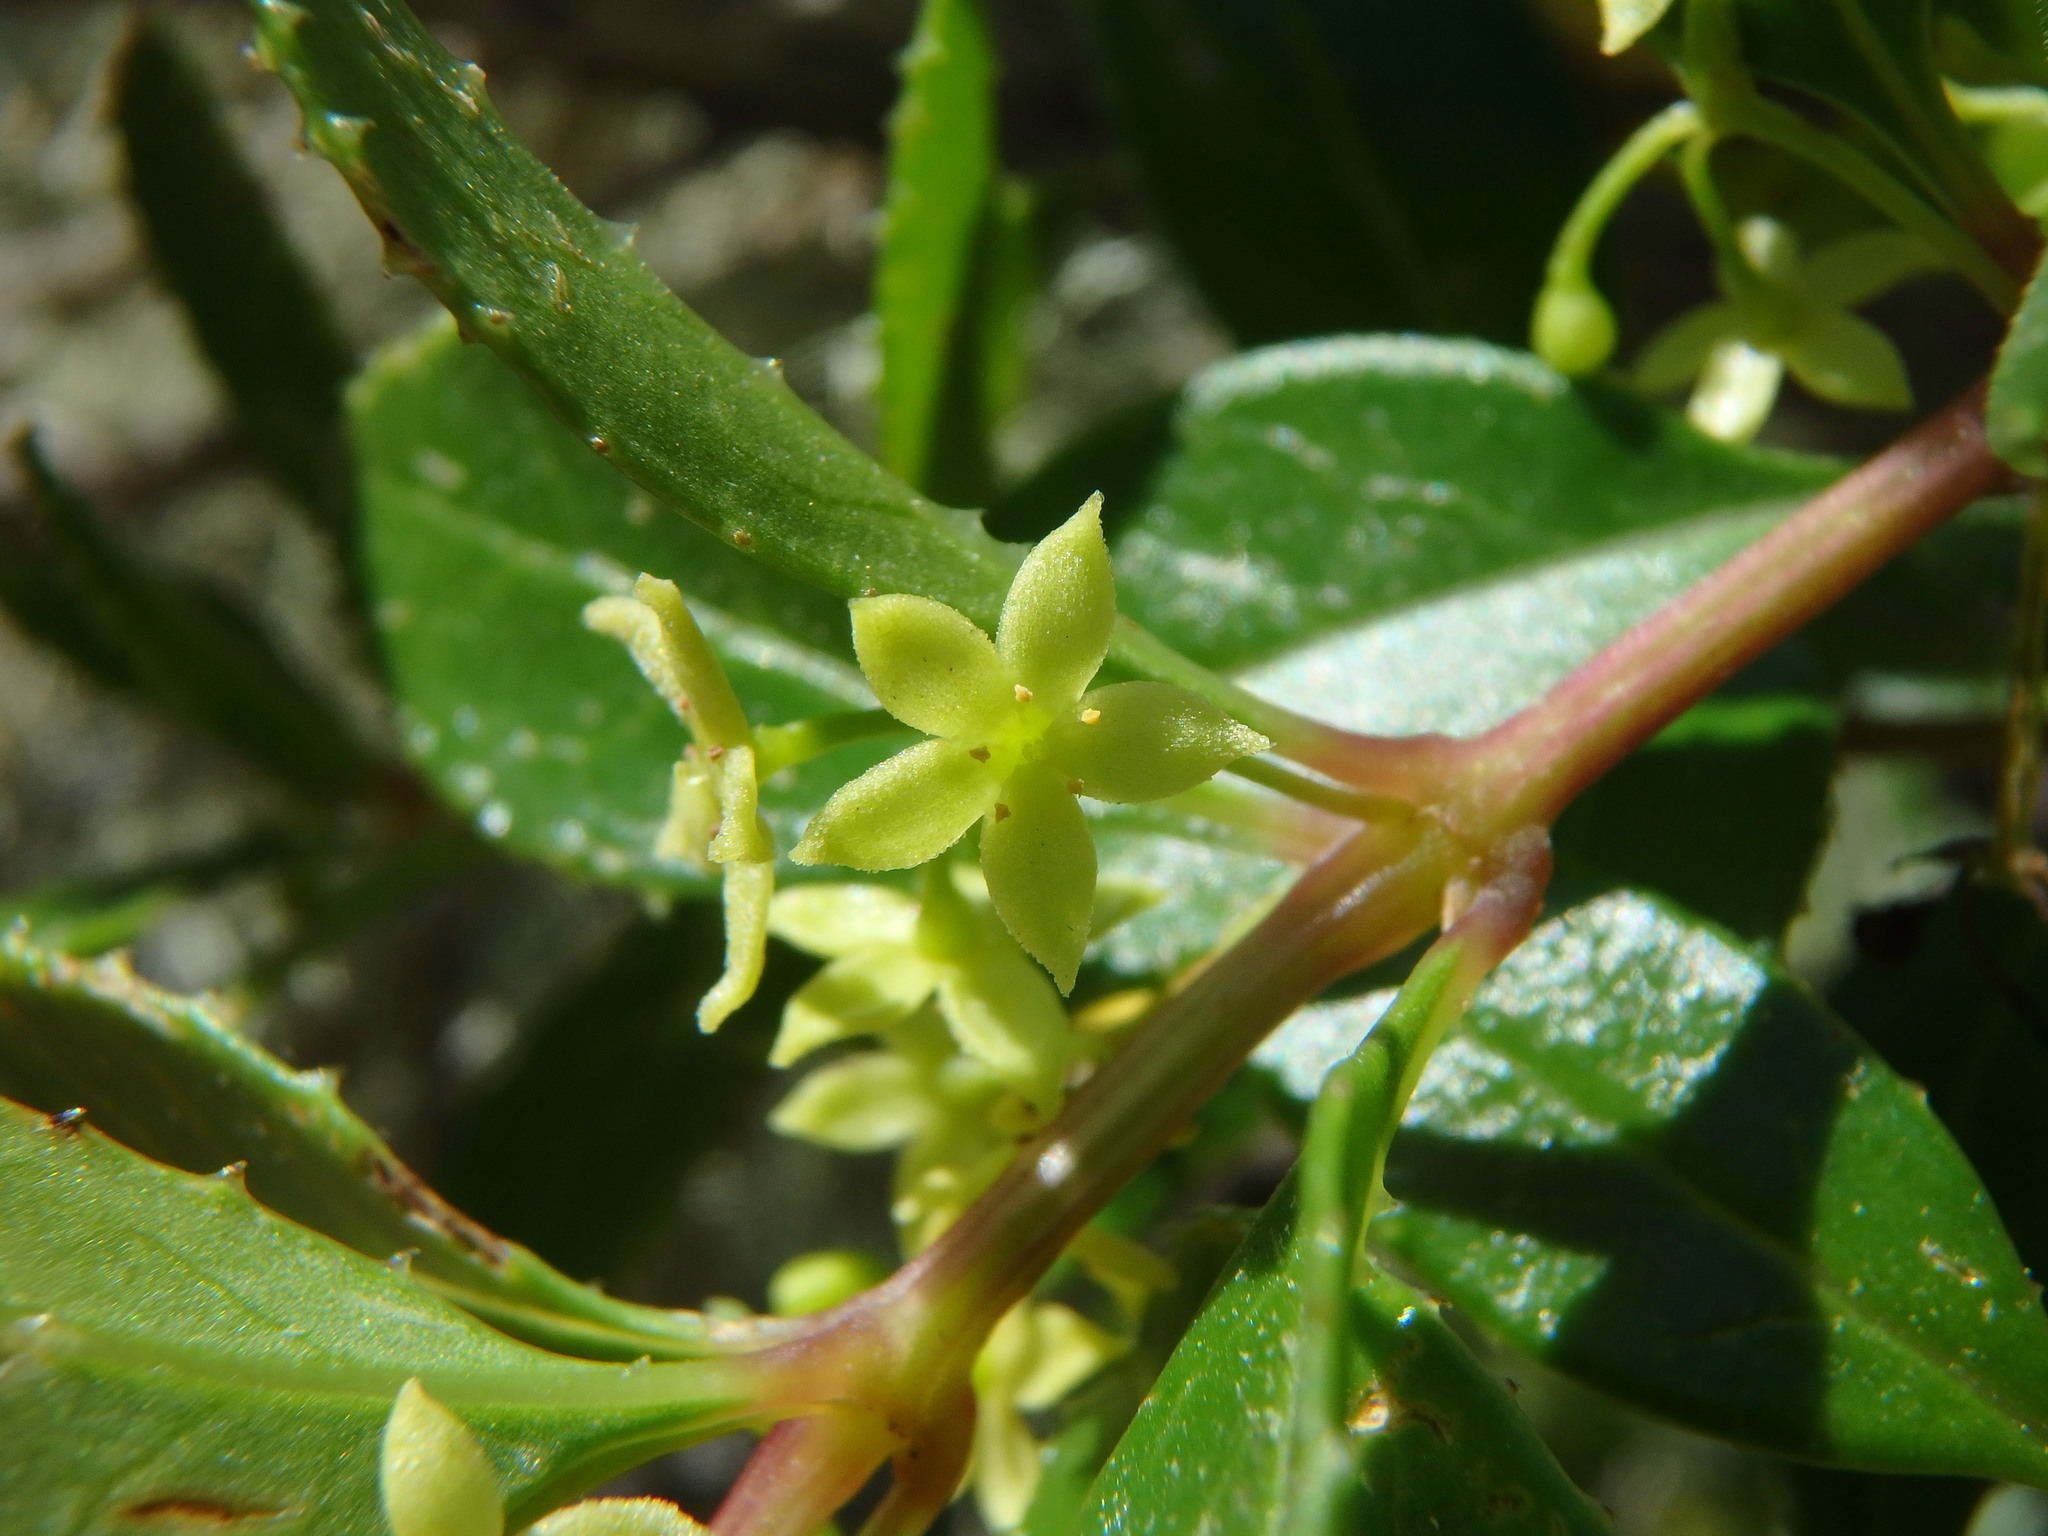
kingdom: Plantae
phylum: Tracheophyta
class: Magnoliopsida
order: Gentianales
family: Rubiaceae
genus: Rubia
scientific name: Rubia fruticosa
